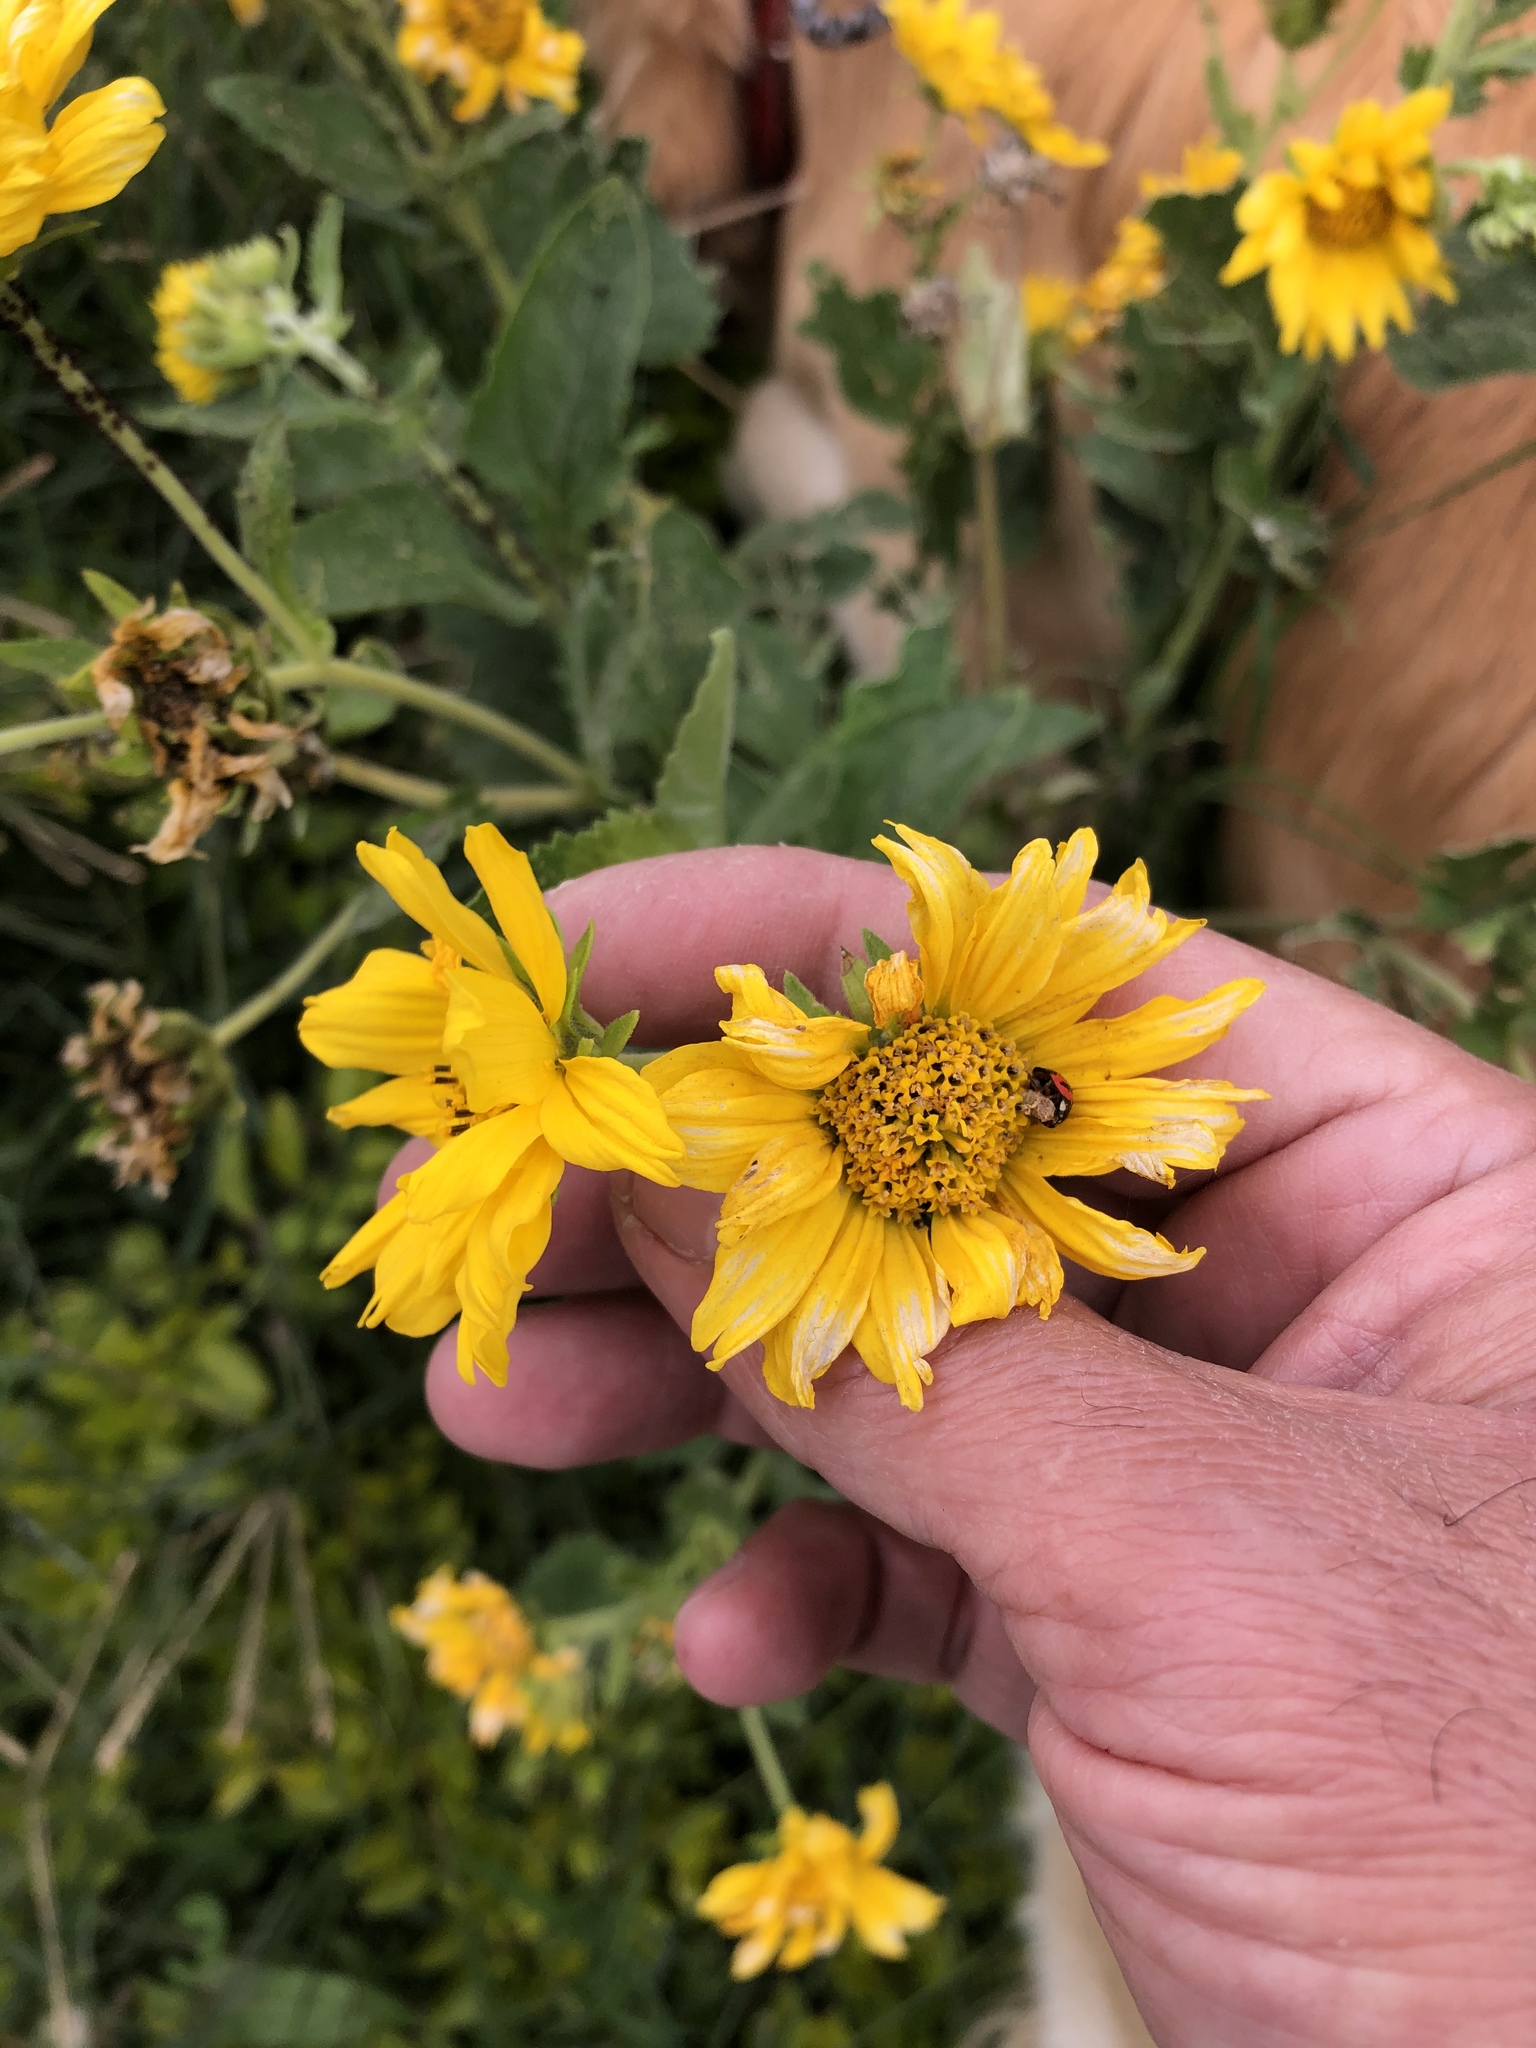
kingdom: Plantae
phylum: Tracheophyta
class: Magnoliopsida
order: Asterales
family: Asteraceae
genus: Verbesina
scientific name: Verbesina encelioides
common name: Golden crownbeard
